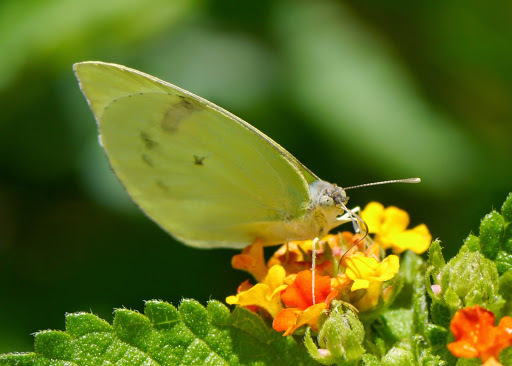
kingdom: Animalia
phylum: Arthropoda
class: Insecta
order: Lepidoptera
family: Pieridae
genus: Kricogonia
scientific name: Kricogonia lyside
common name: Guayacan sulphur,
